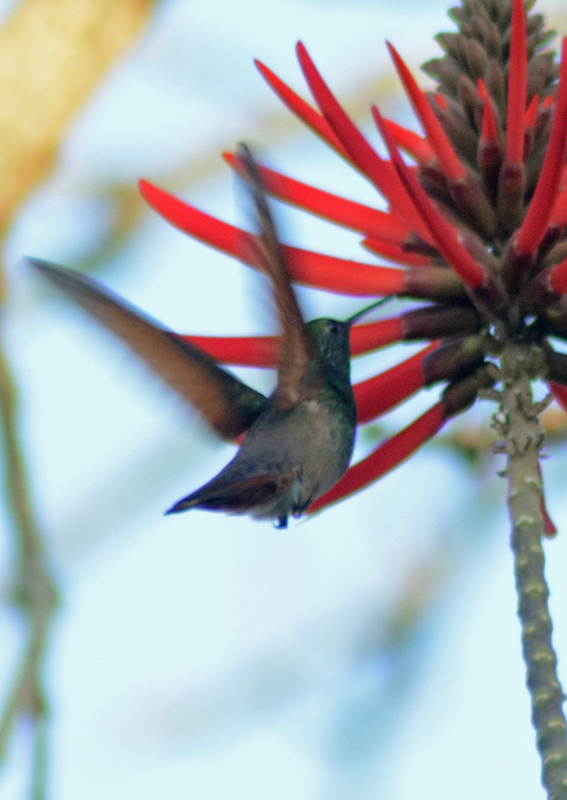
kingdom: Animalia
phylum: Chordata
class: Aves
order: Apodiformes
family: Trochilidae
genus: Saucerottia
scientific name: Saucerottia beryllina
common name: Berylline hummingbird
